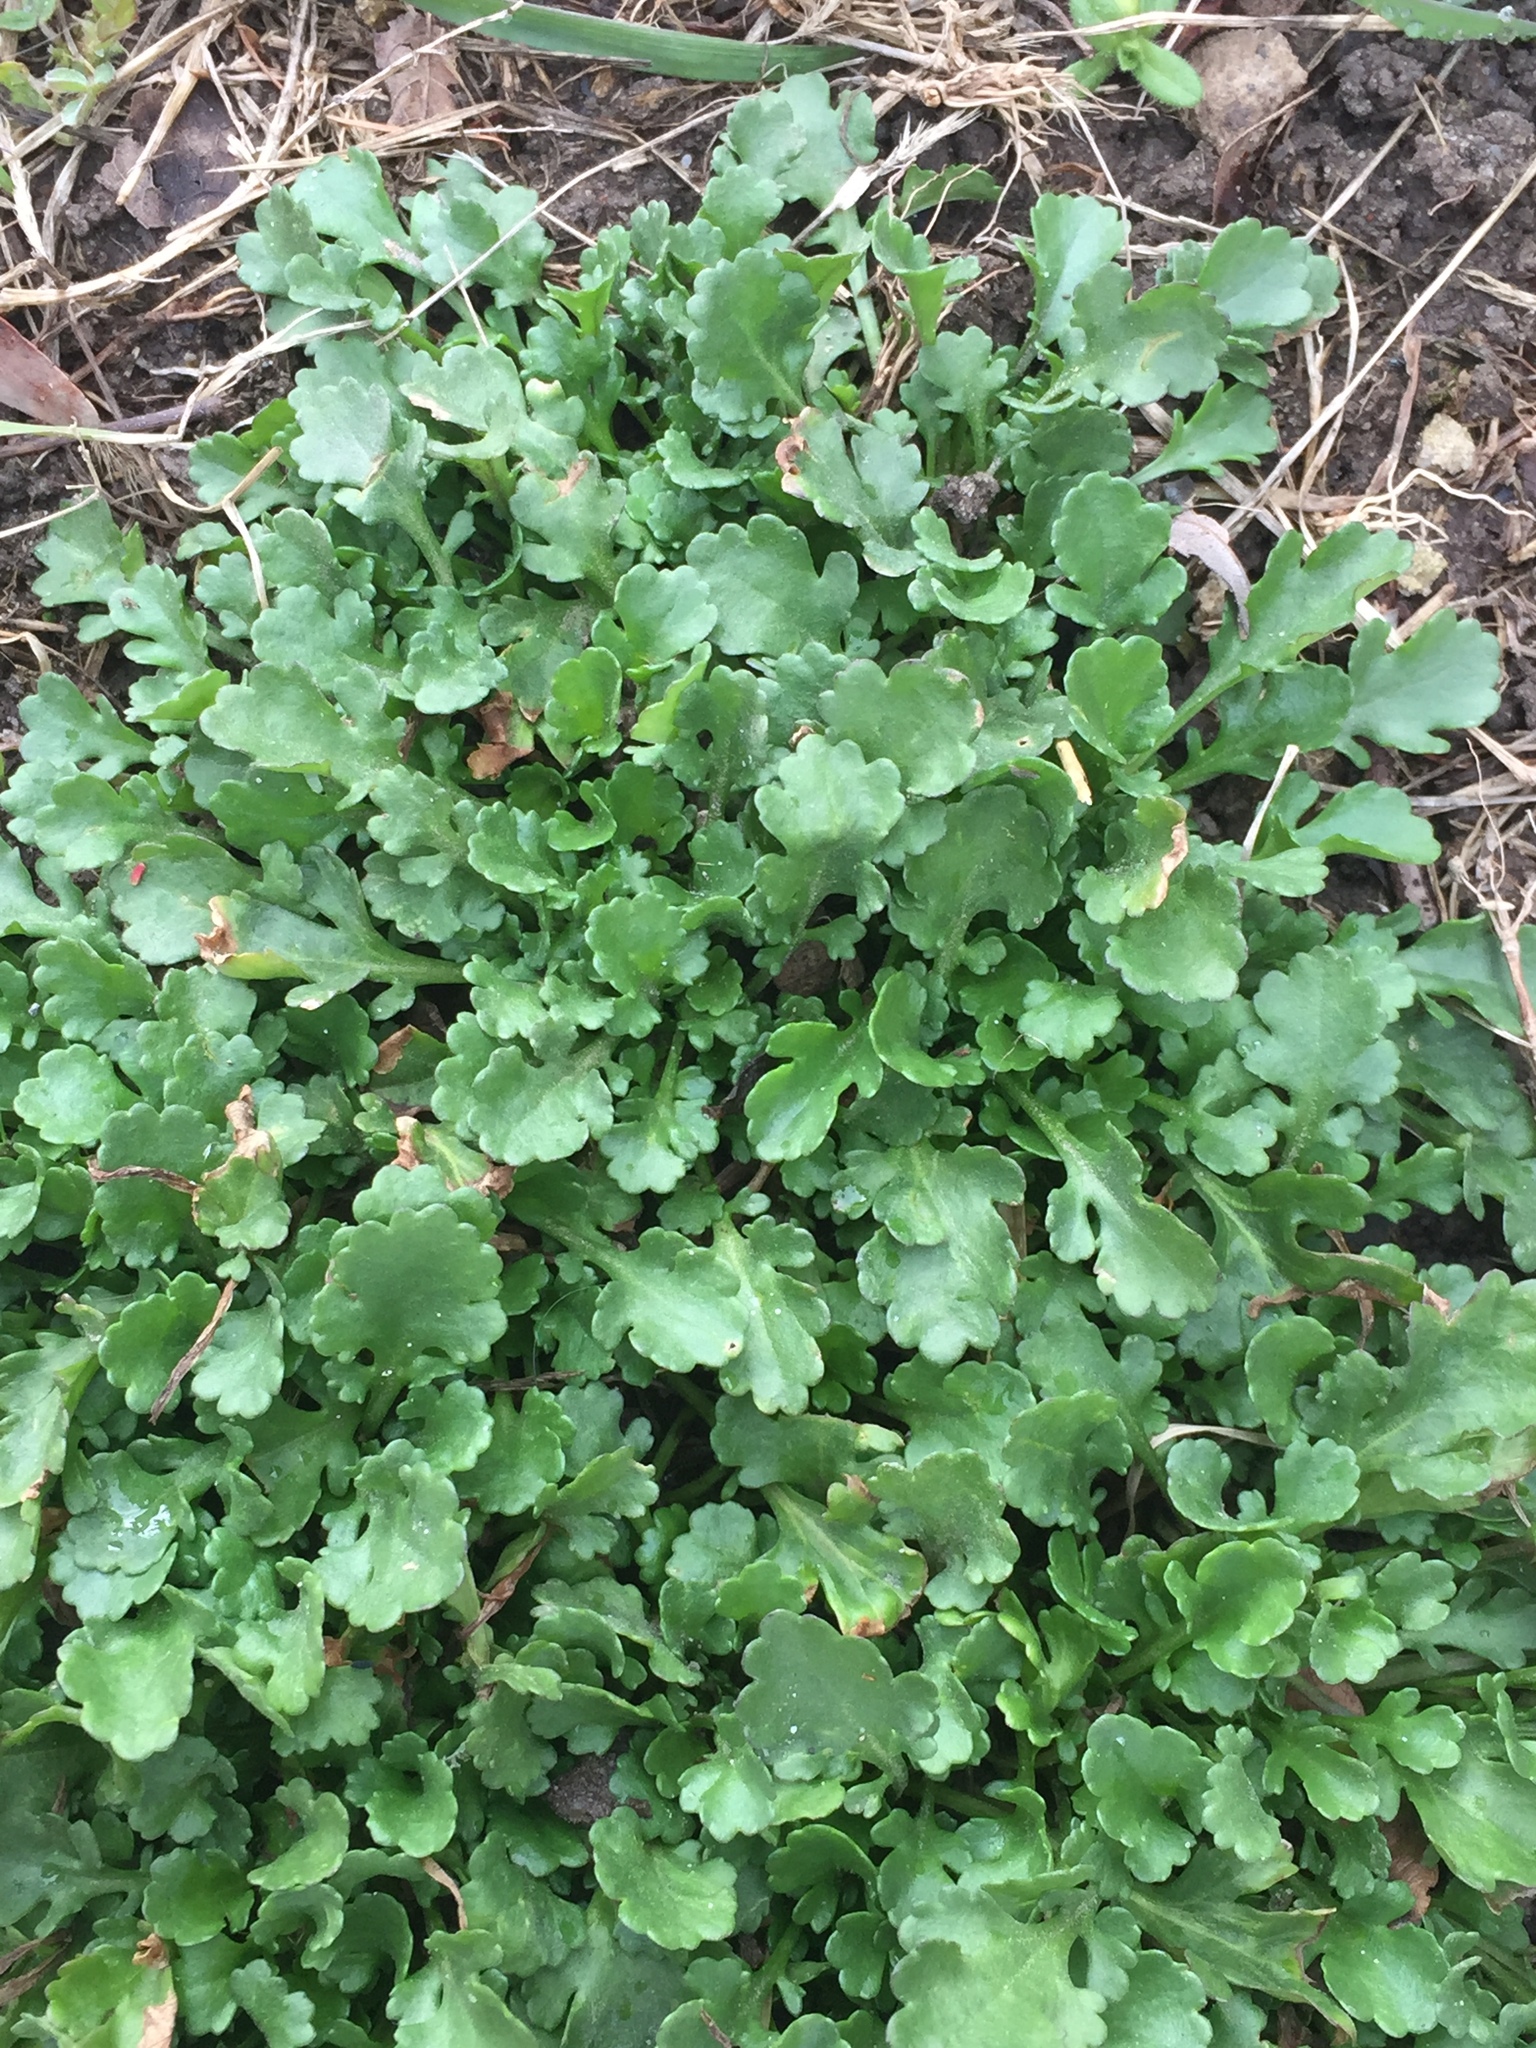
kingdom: Plantae
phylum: Tracheophyta
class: Magnoliopsida
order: Asterales
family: Asteraceae
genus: Leucanthemum
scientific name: Leucanthemum vulgare
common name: Oxeye daisy
